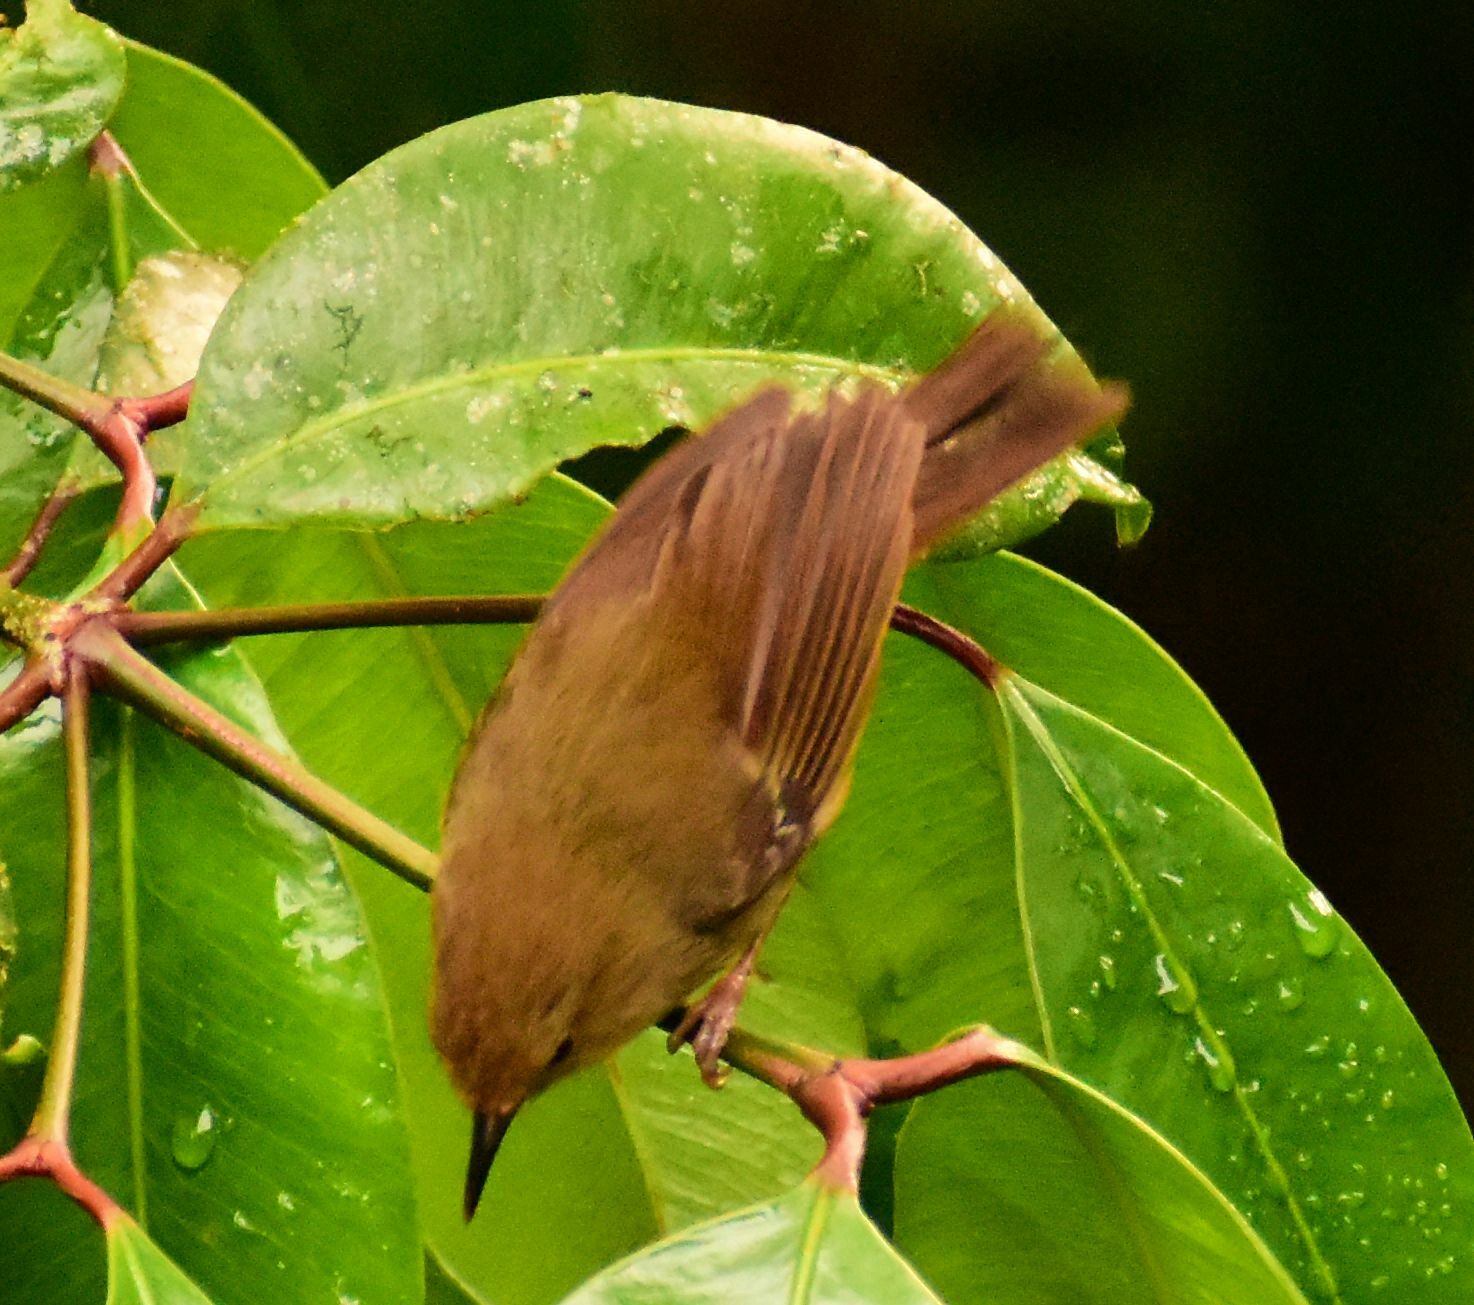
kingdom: Animalia
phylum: Chordata
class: Aves
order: Passeriformes
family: Acanthizidae
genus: Sericornis
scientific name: Sericornis keri
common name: Atherton scrubwren
